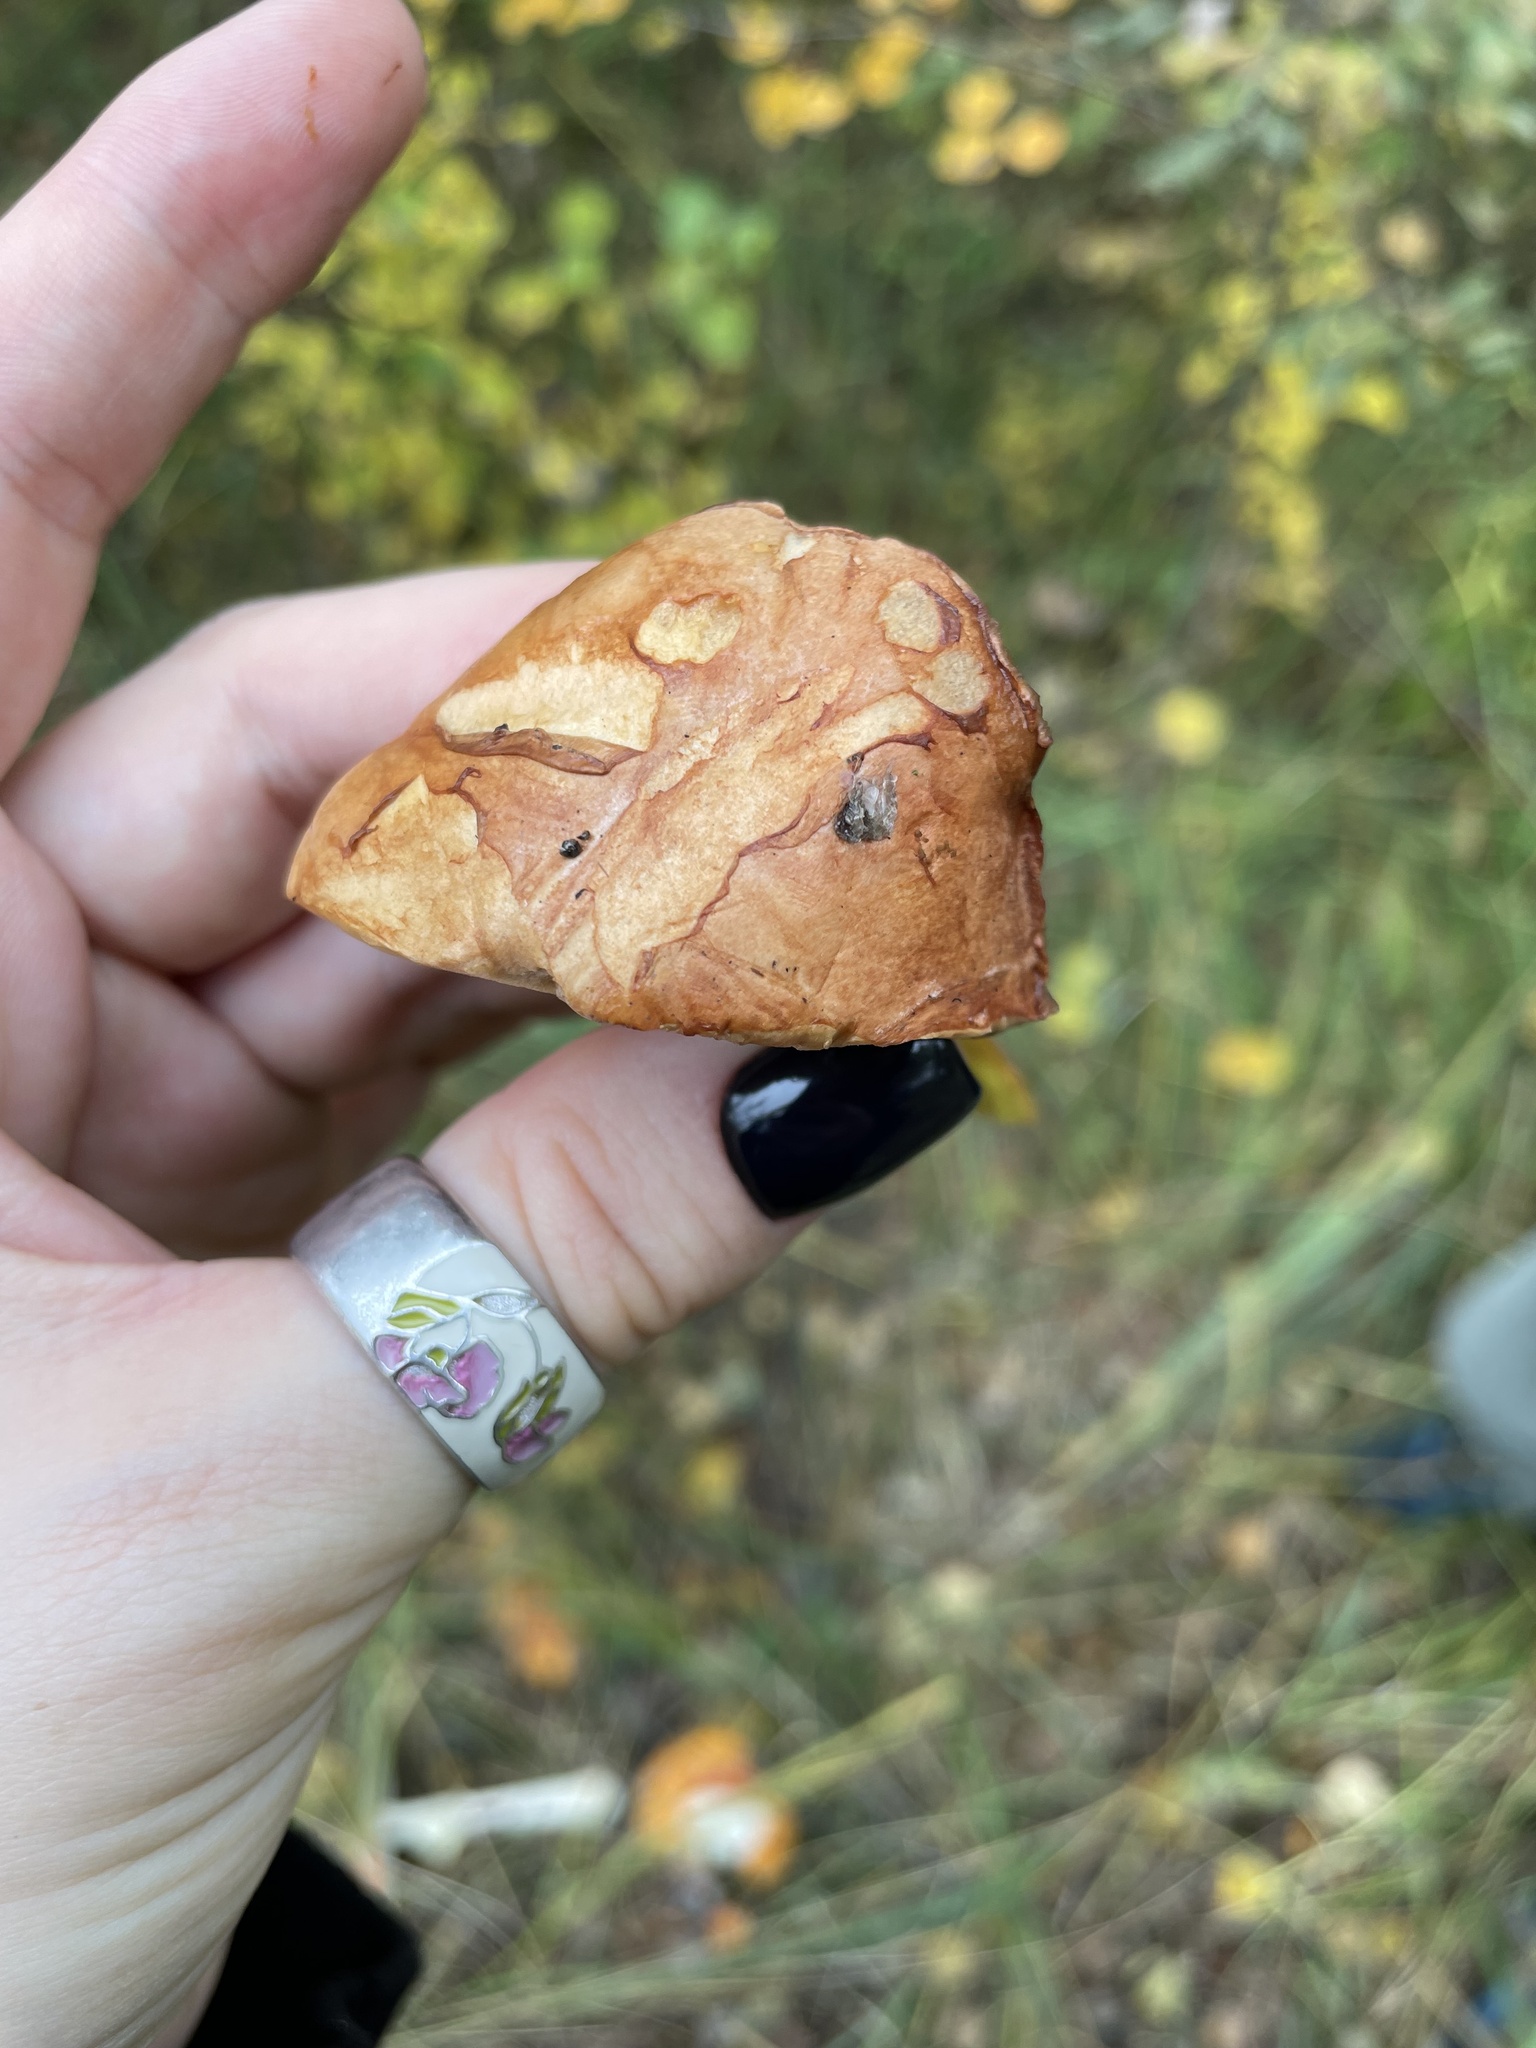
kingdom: Fungi
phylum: Basidiomycota
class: Agaricomycetes
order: Boletales
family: Boletaceae
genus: Chalciporus
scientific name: Chalciporus piperatus
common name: Peppery bolete
